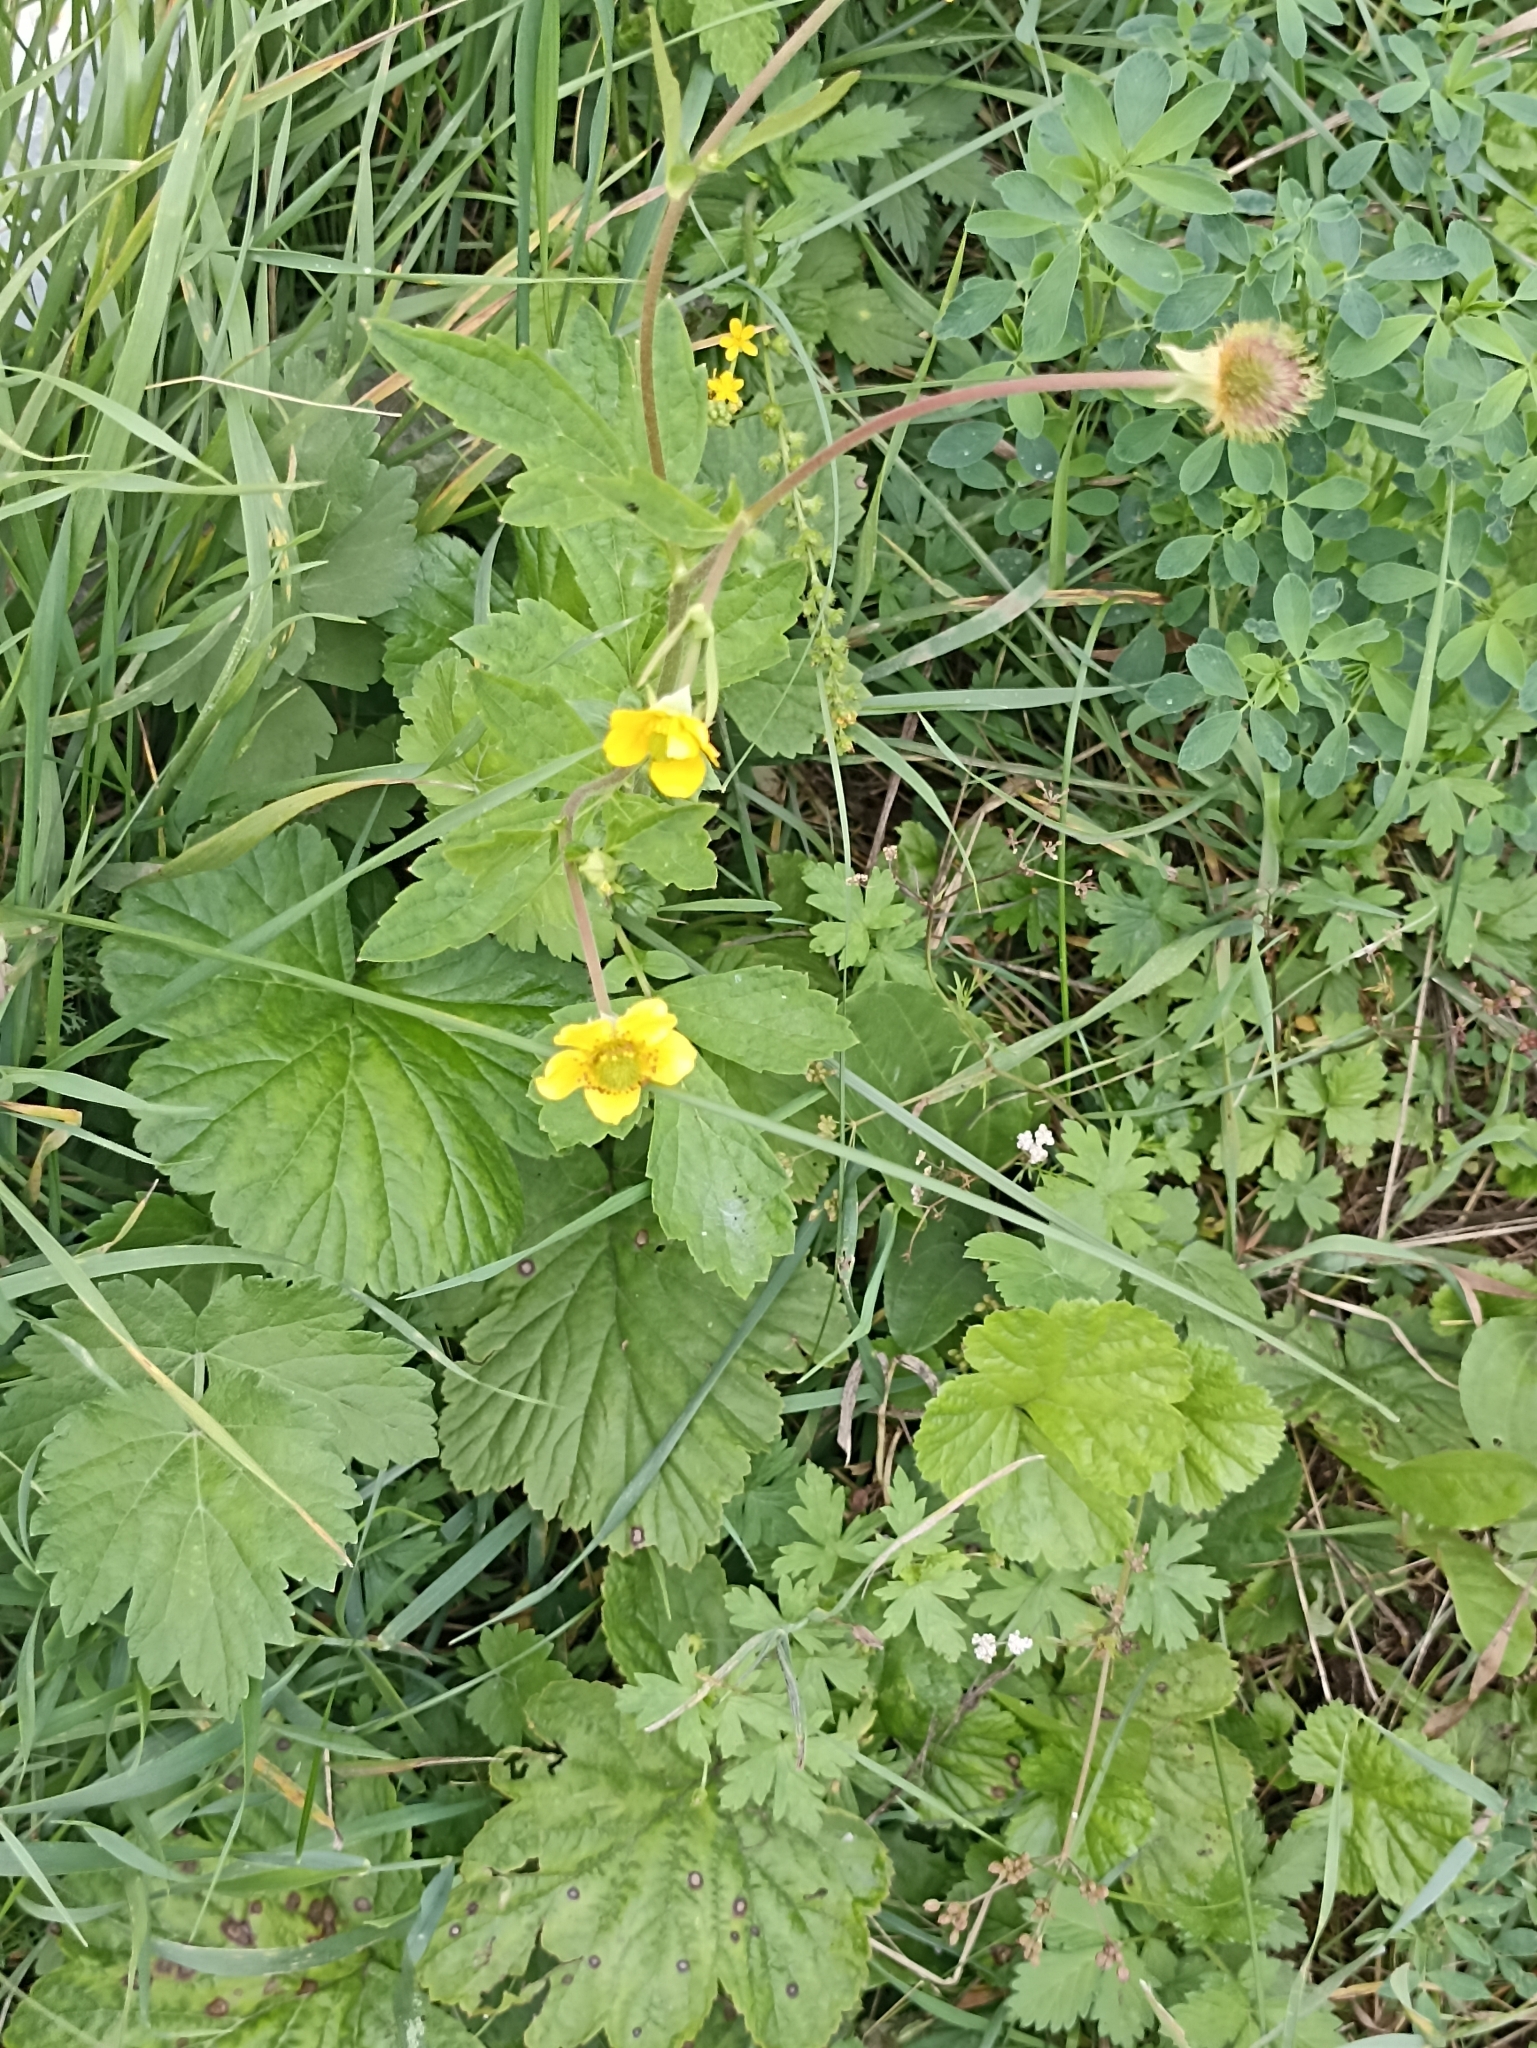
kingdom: Plantae
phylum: Tracheophyta
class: Magnoliopsida
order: Rosales
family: Rosaceae
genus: Geum
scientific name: Geum aleppicum
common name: Yellow avens
